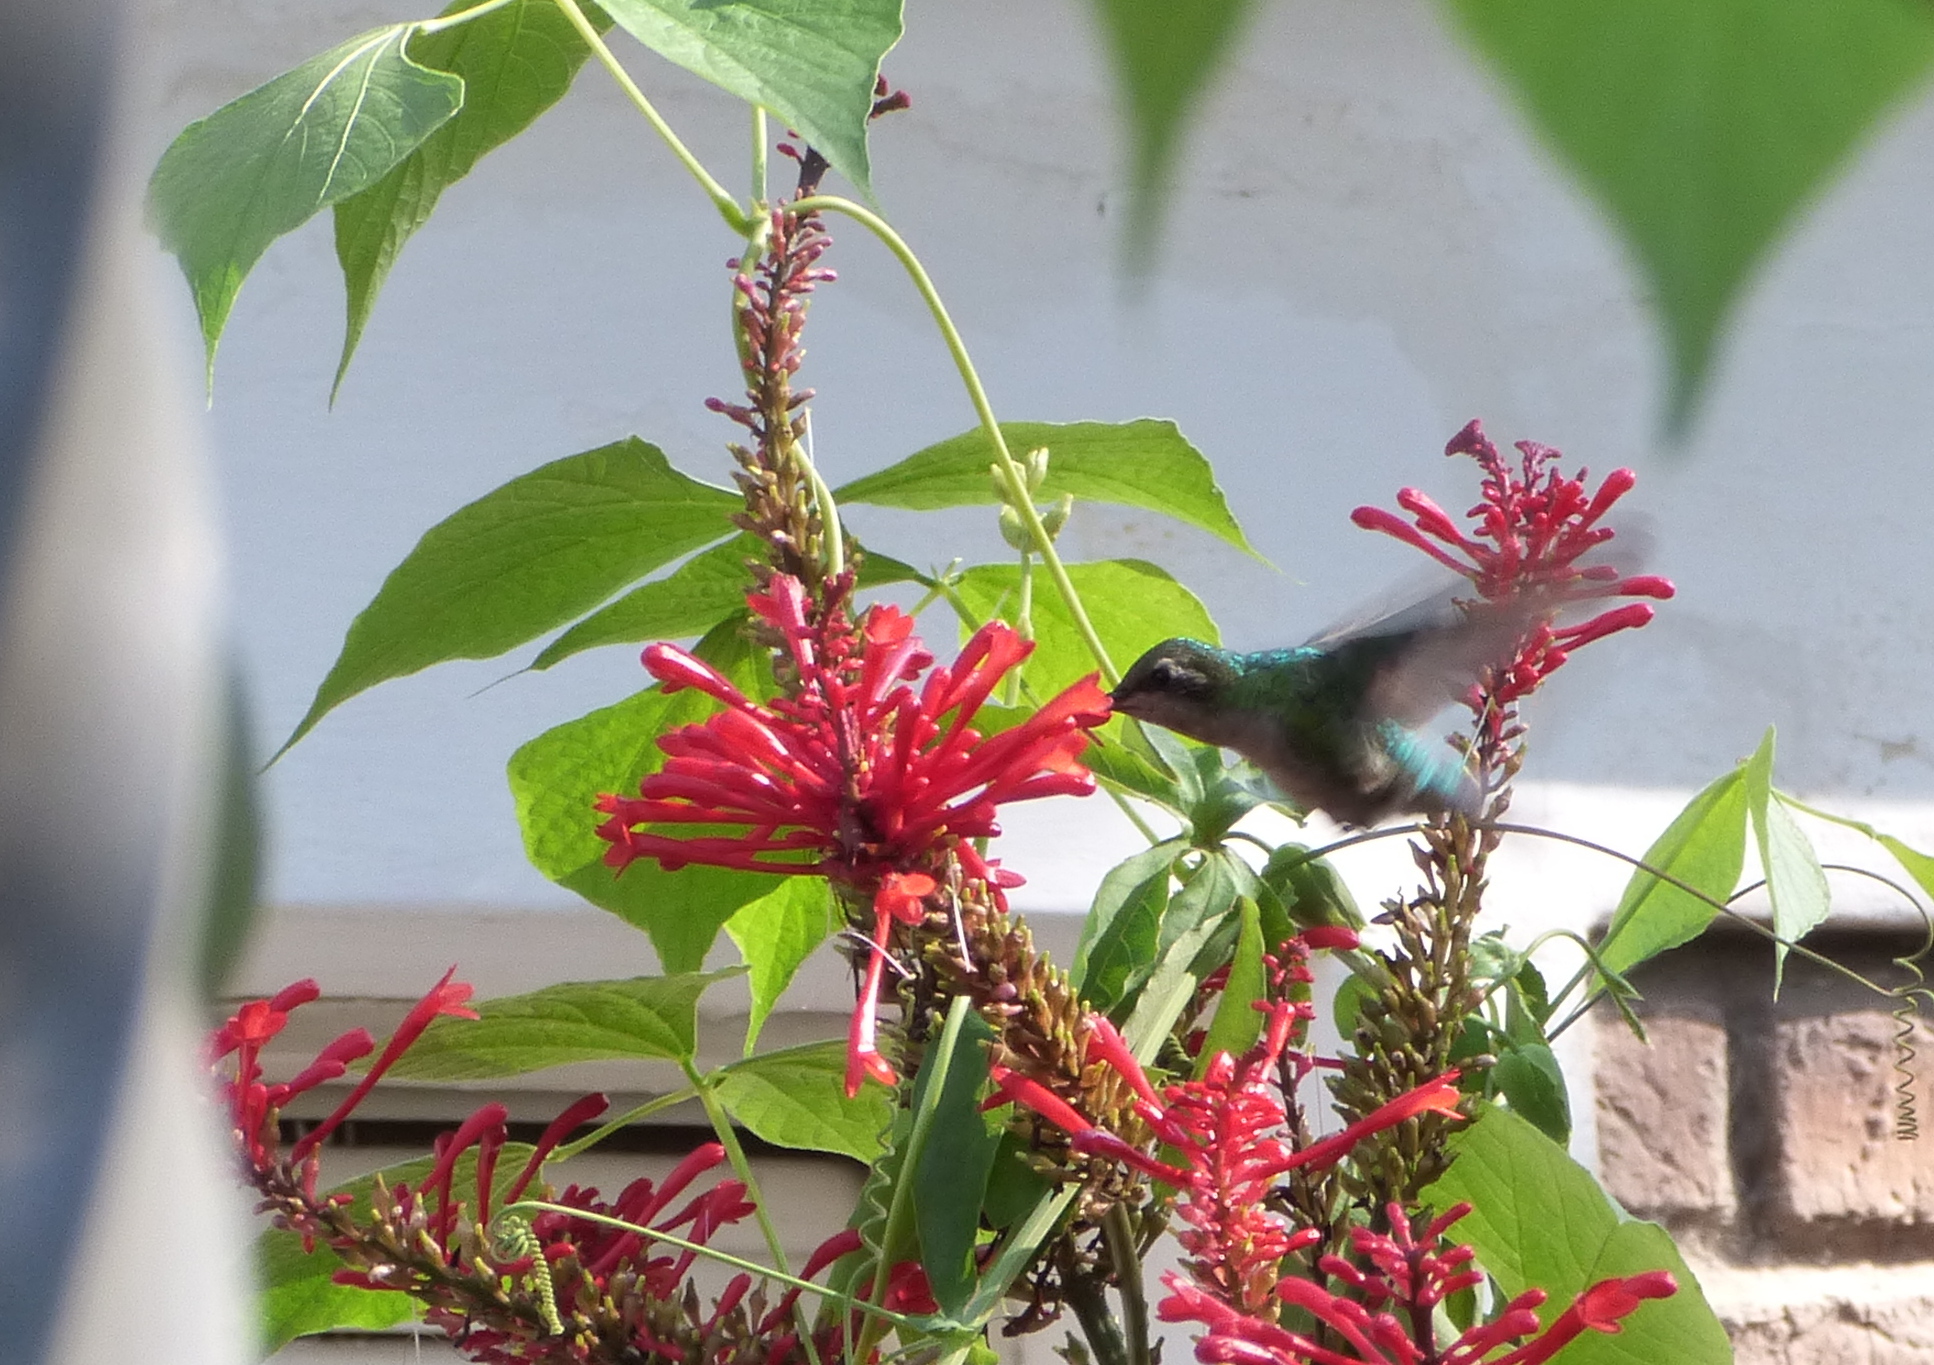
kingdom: Animalia
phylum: Chordata
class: Aves
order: Apodiformes
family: Trochilidae
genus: Chlorostilbon
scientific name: Chlorostilbon lucidus
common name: Glittering-bellied emerald
